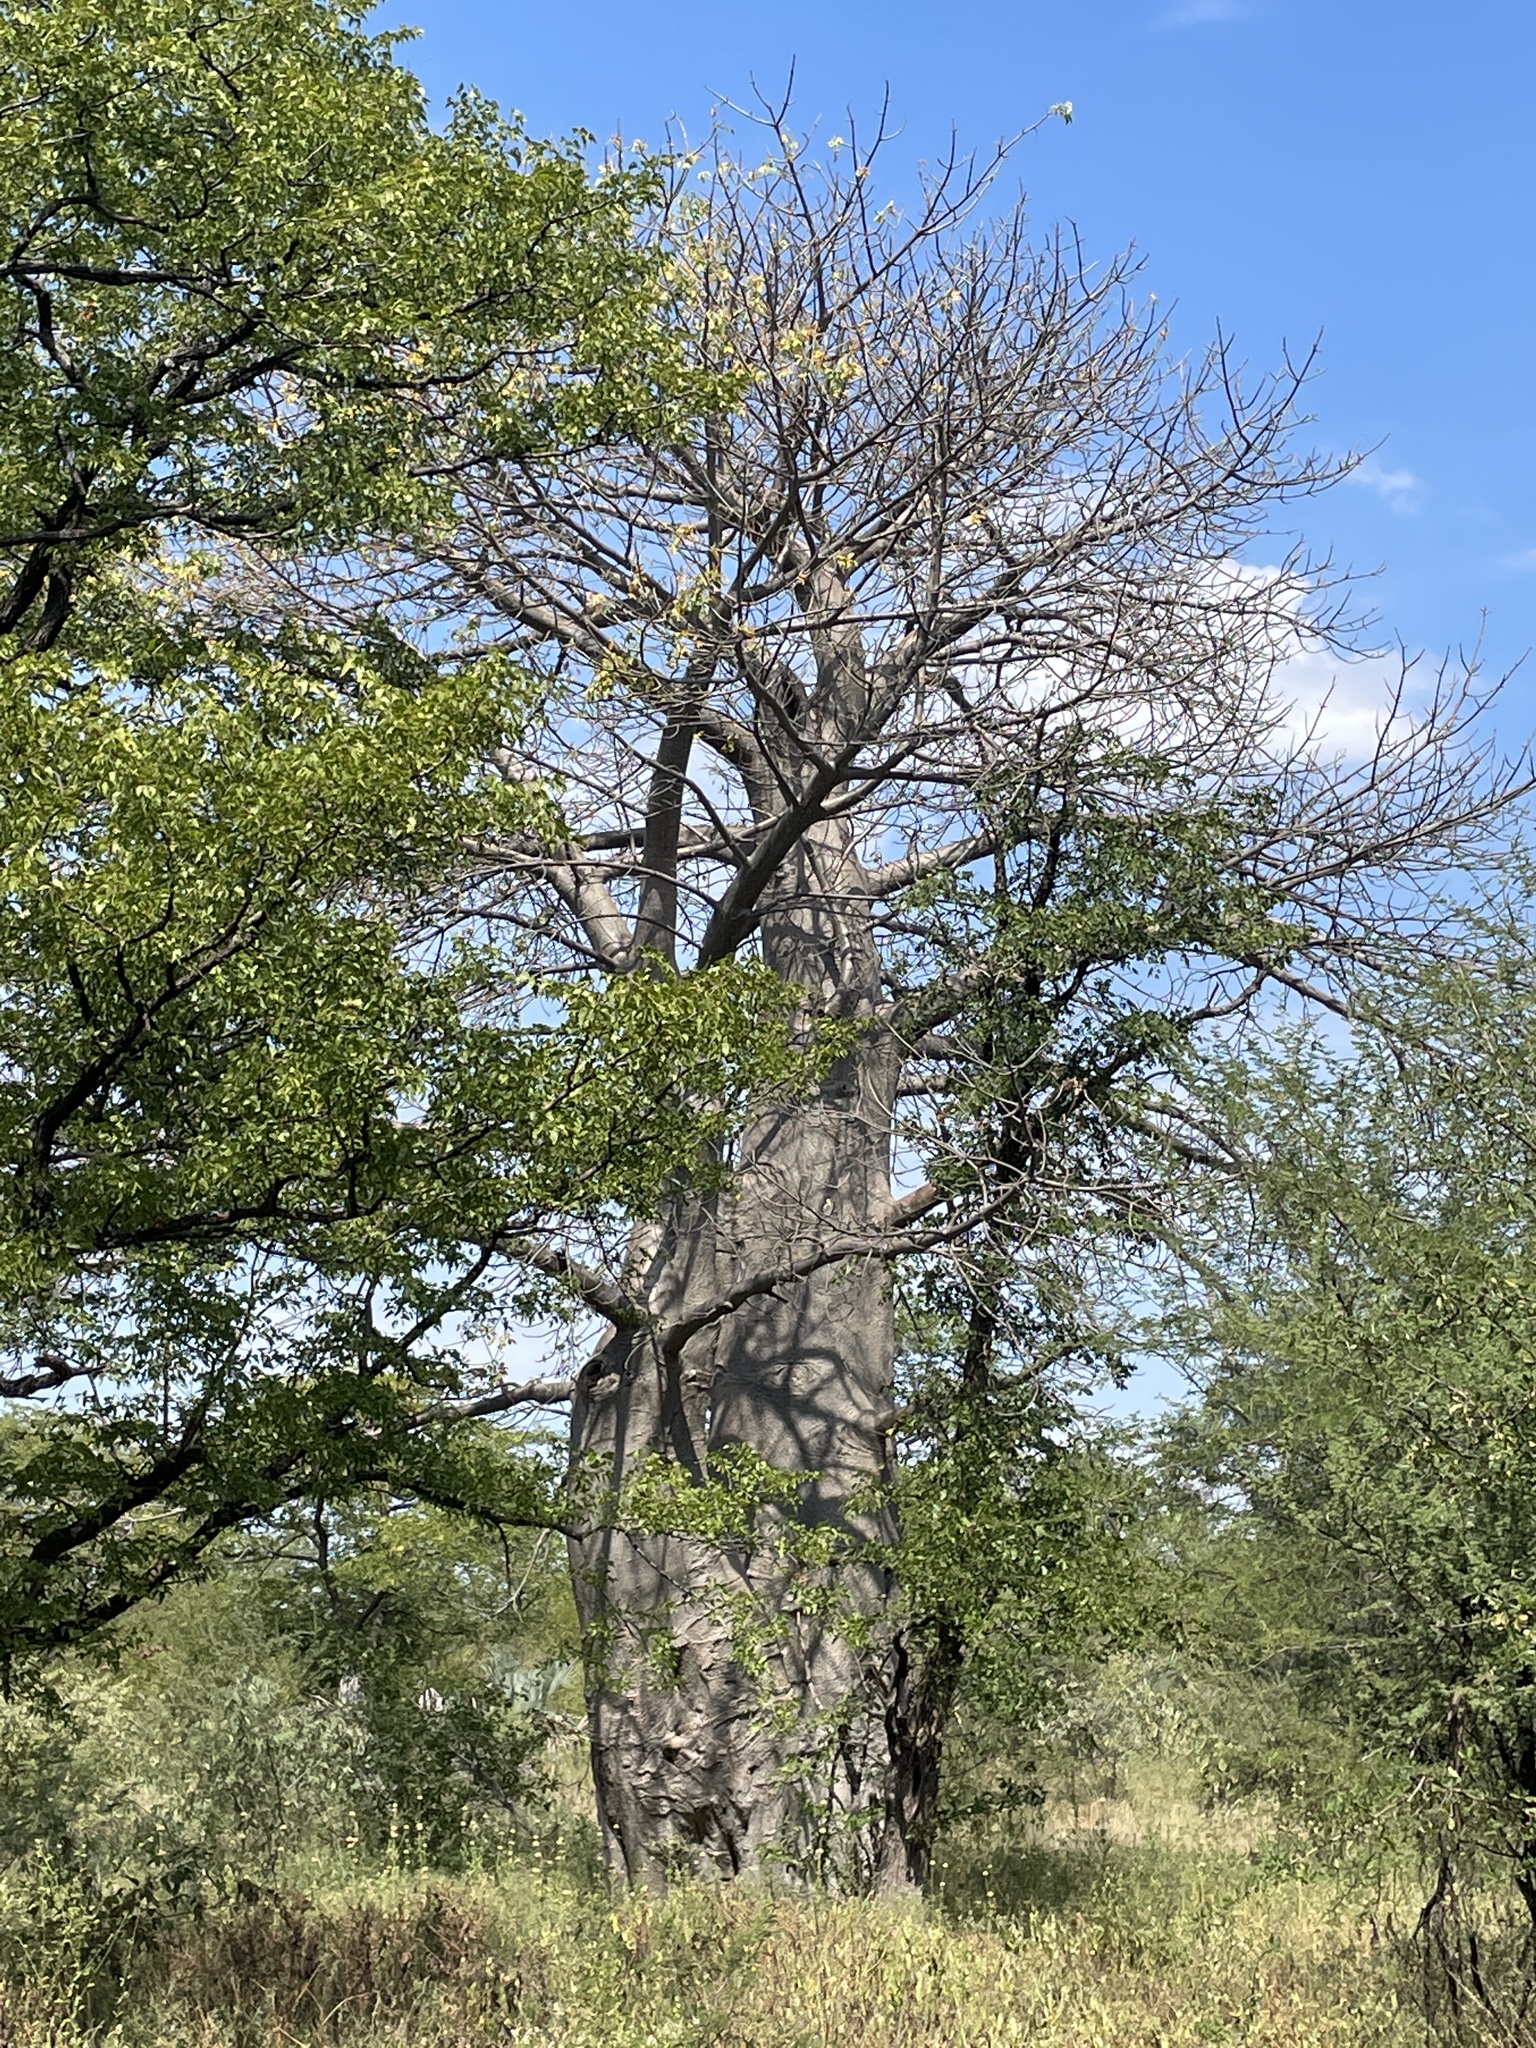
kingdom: Plantae
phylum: Tracheophyta
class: Magnoliopsida
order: Malvales
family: Malvaceae
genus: Adansonia
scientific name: Adansonia digitata
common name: Dead-rat-tree
